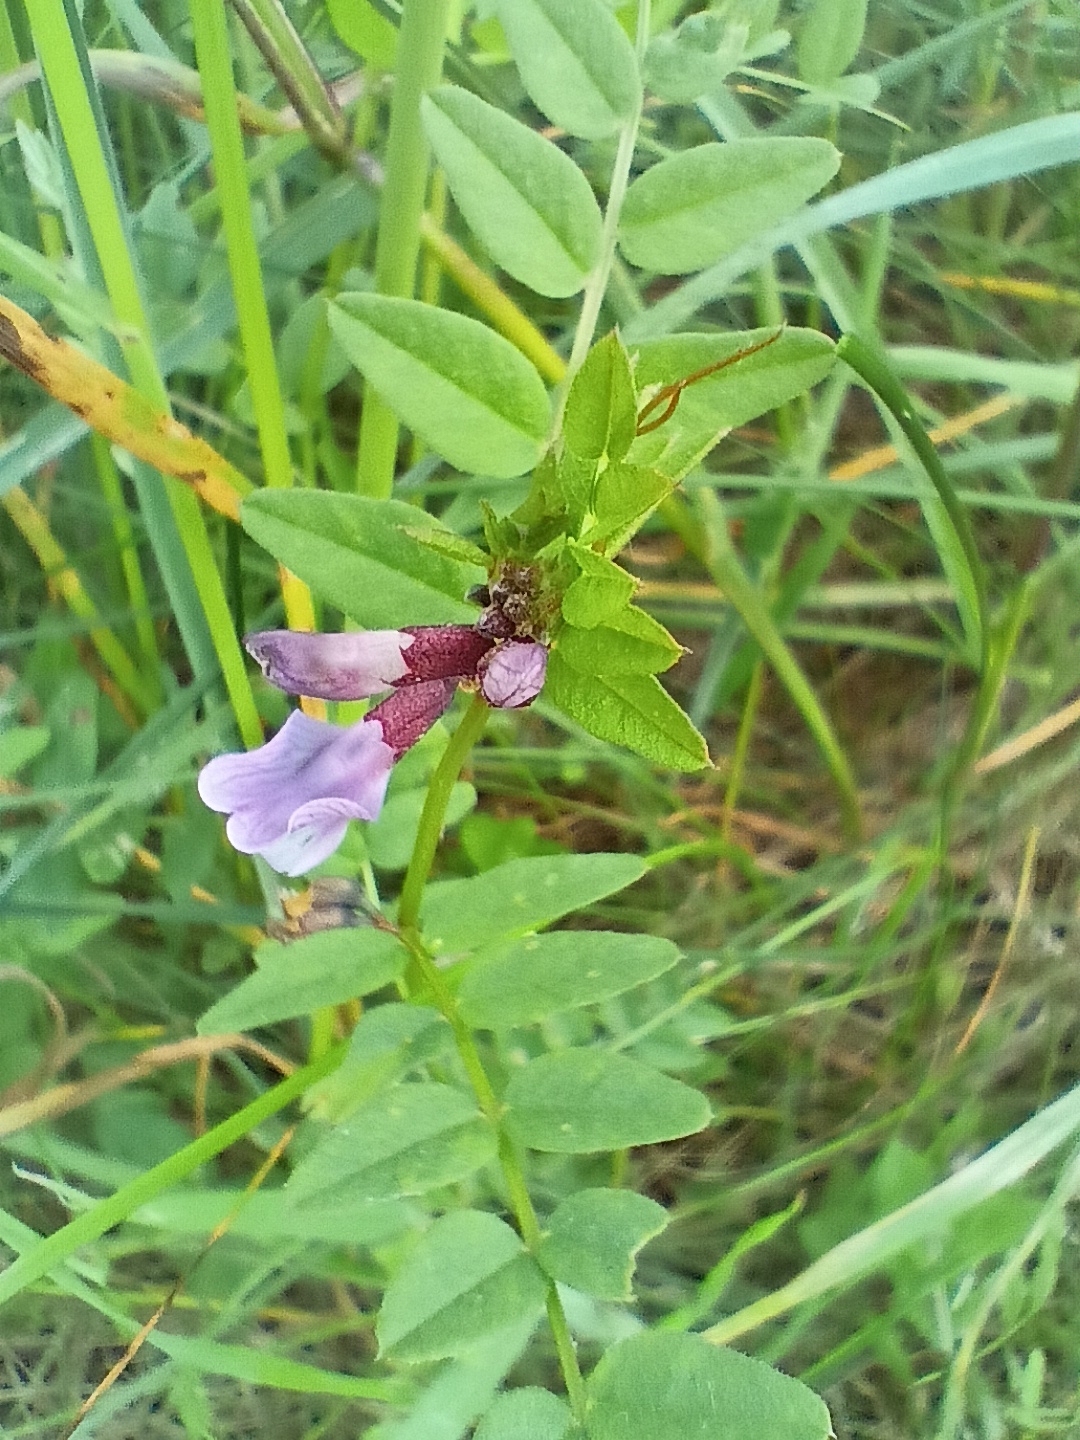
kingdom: Plantae
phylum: Tracheophyta
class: Magnoliopsida
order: Fabales
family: Fabaceae
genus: Vicia
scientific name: Vicia sepium
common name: Bush vetch
